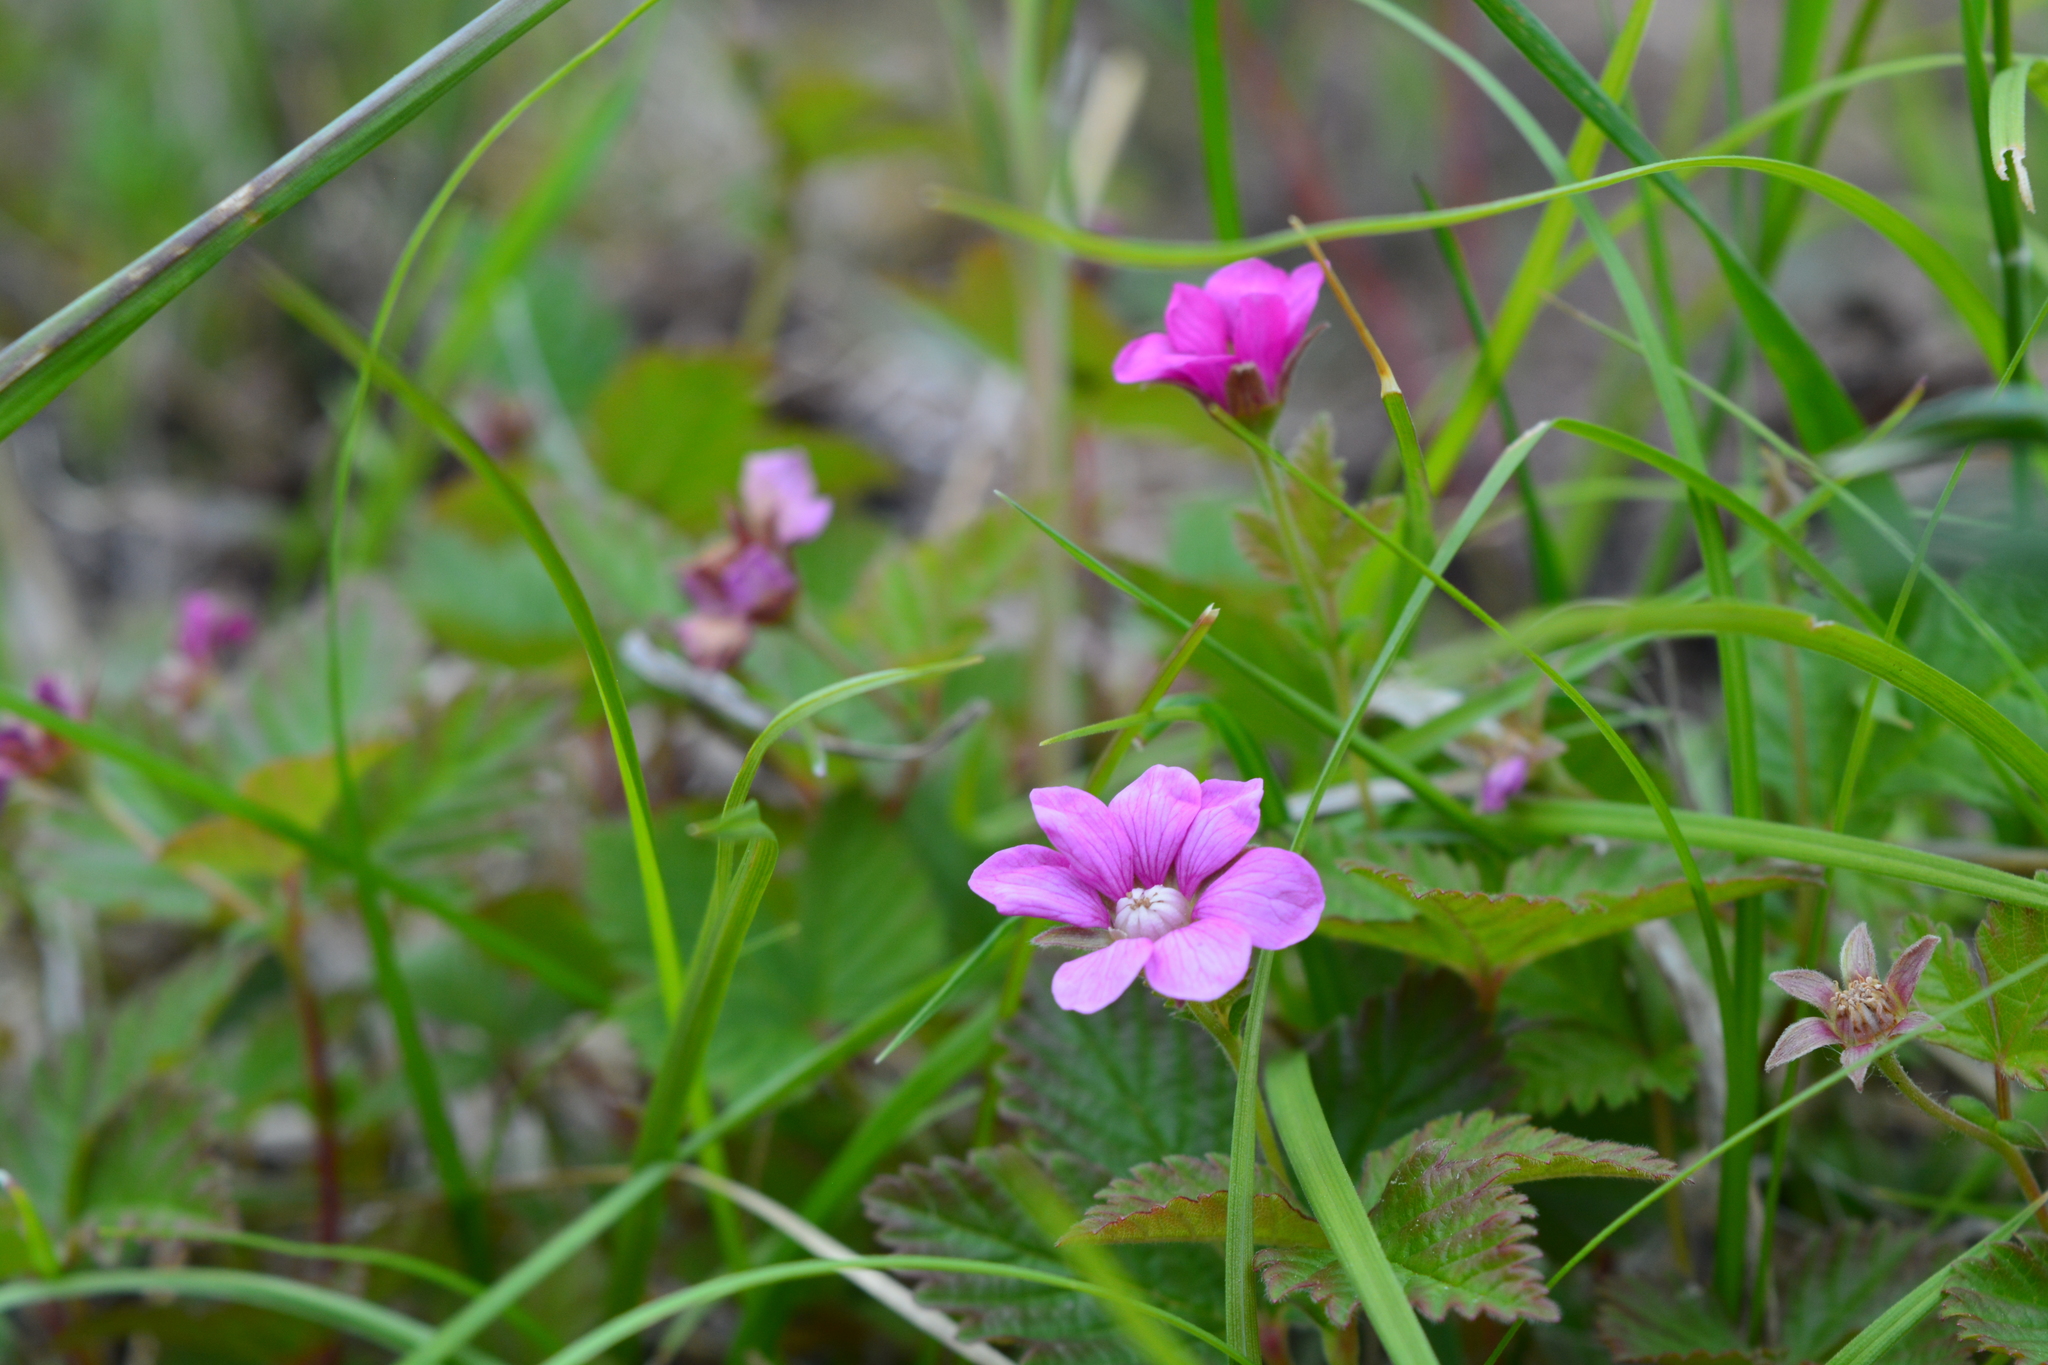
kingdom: Plantae
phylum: Tracheophyta
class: Magnoliopsida
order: Rosales
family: Rosaceae
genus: Rubus
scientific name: Rubus arcticus
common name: Arctic bramble
